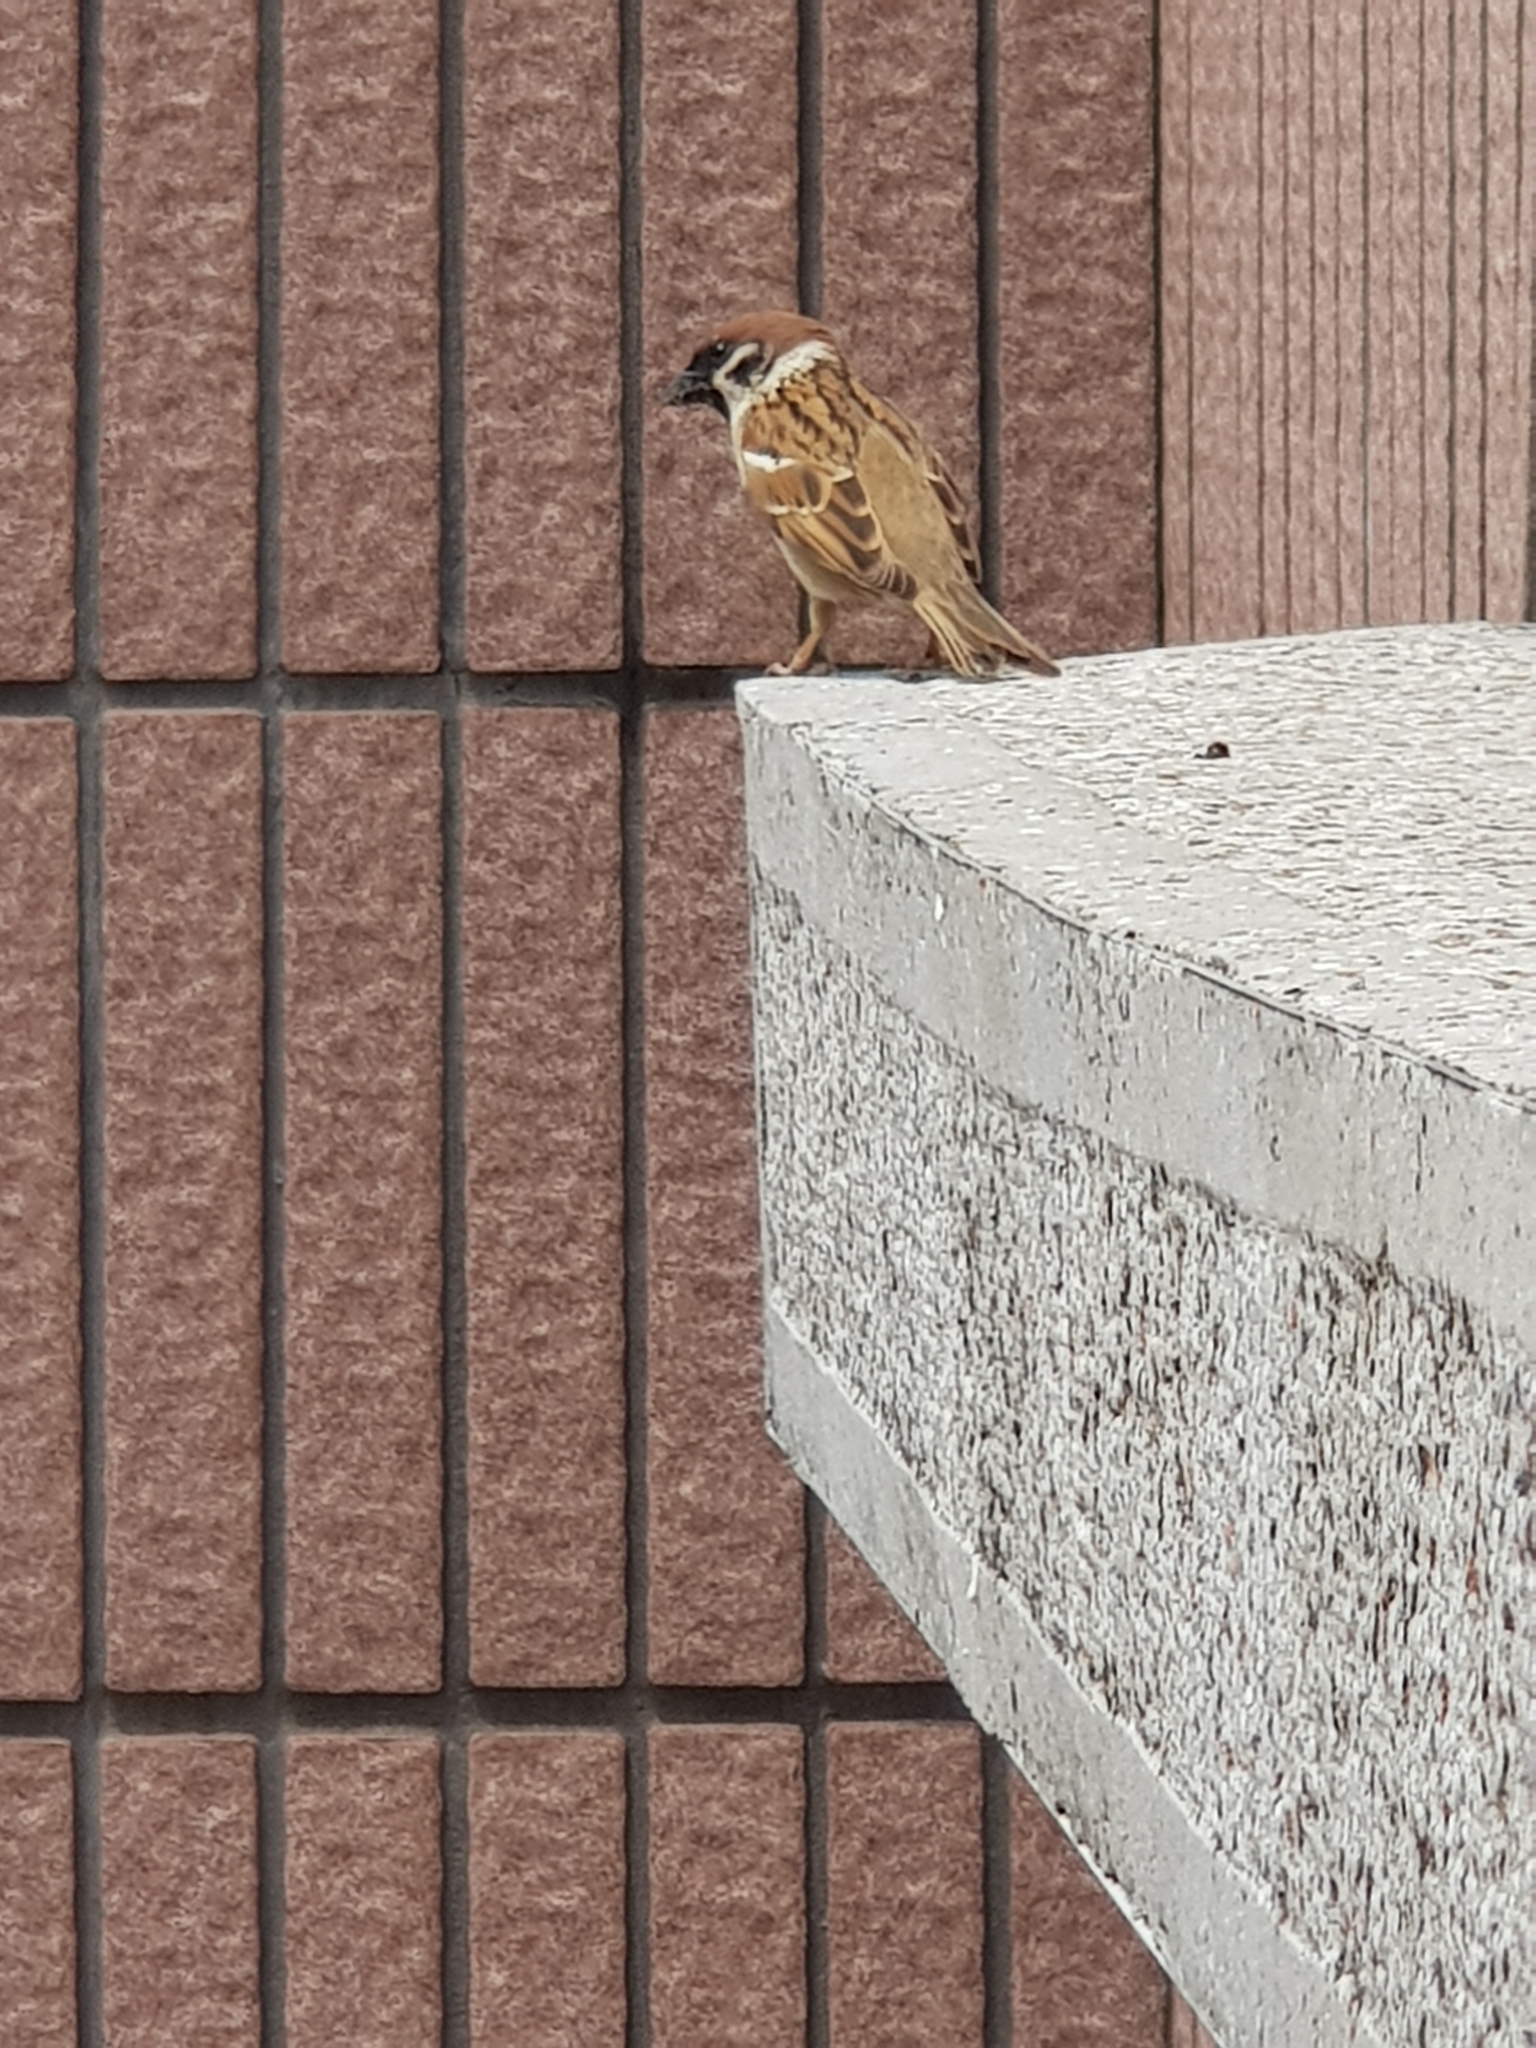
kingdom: Animalia
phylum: Chordata
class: Aves
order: Passeriformes
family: Passeridae
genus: Passer
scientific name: Passer montanus
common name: Eurasian tree sparrow
